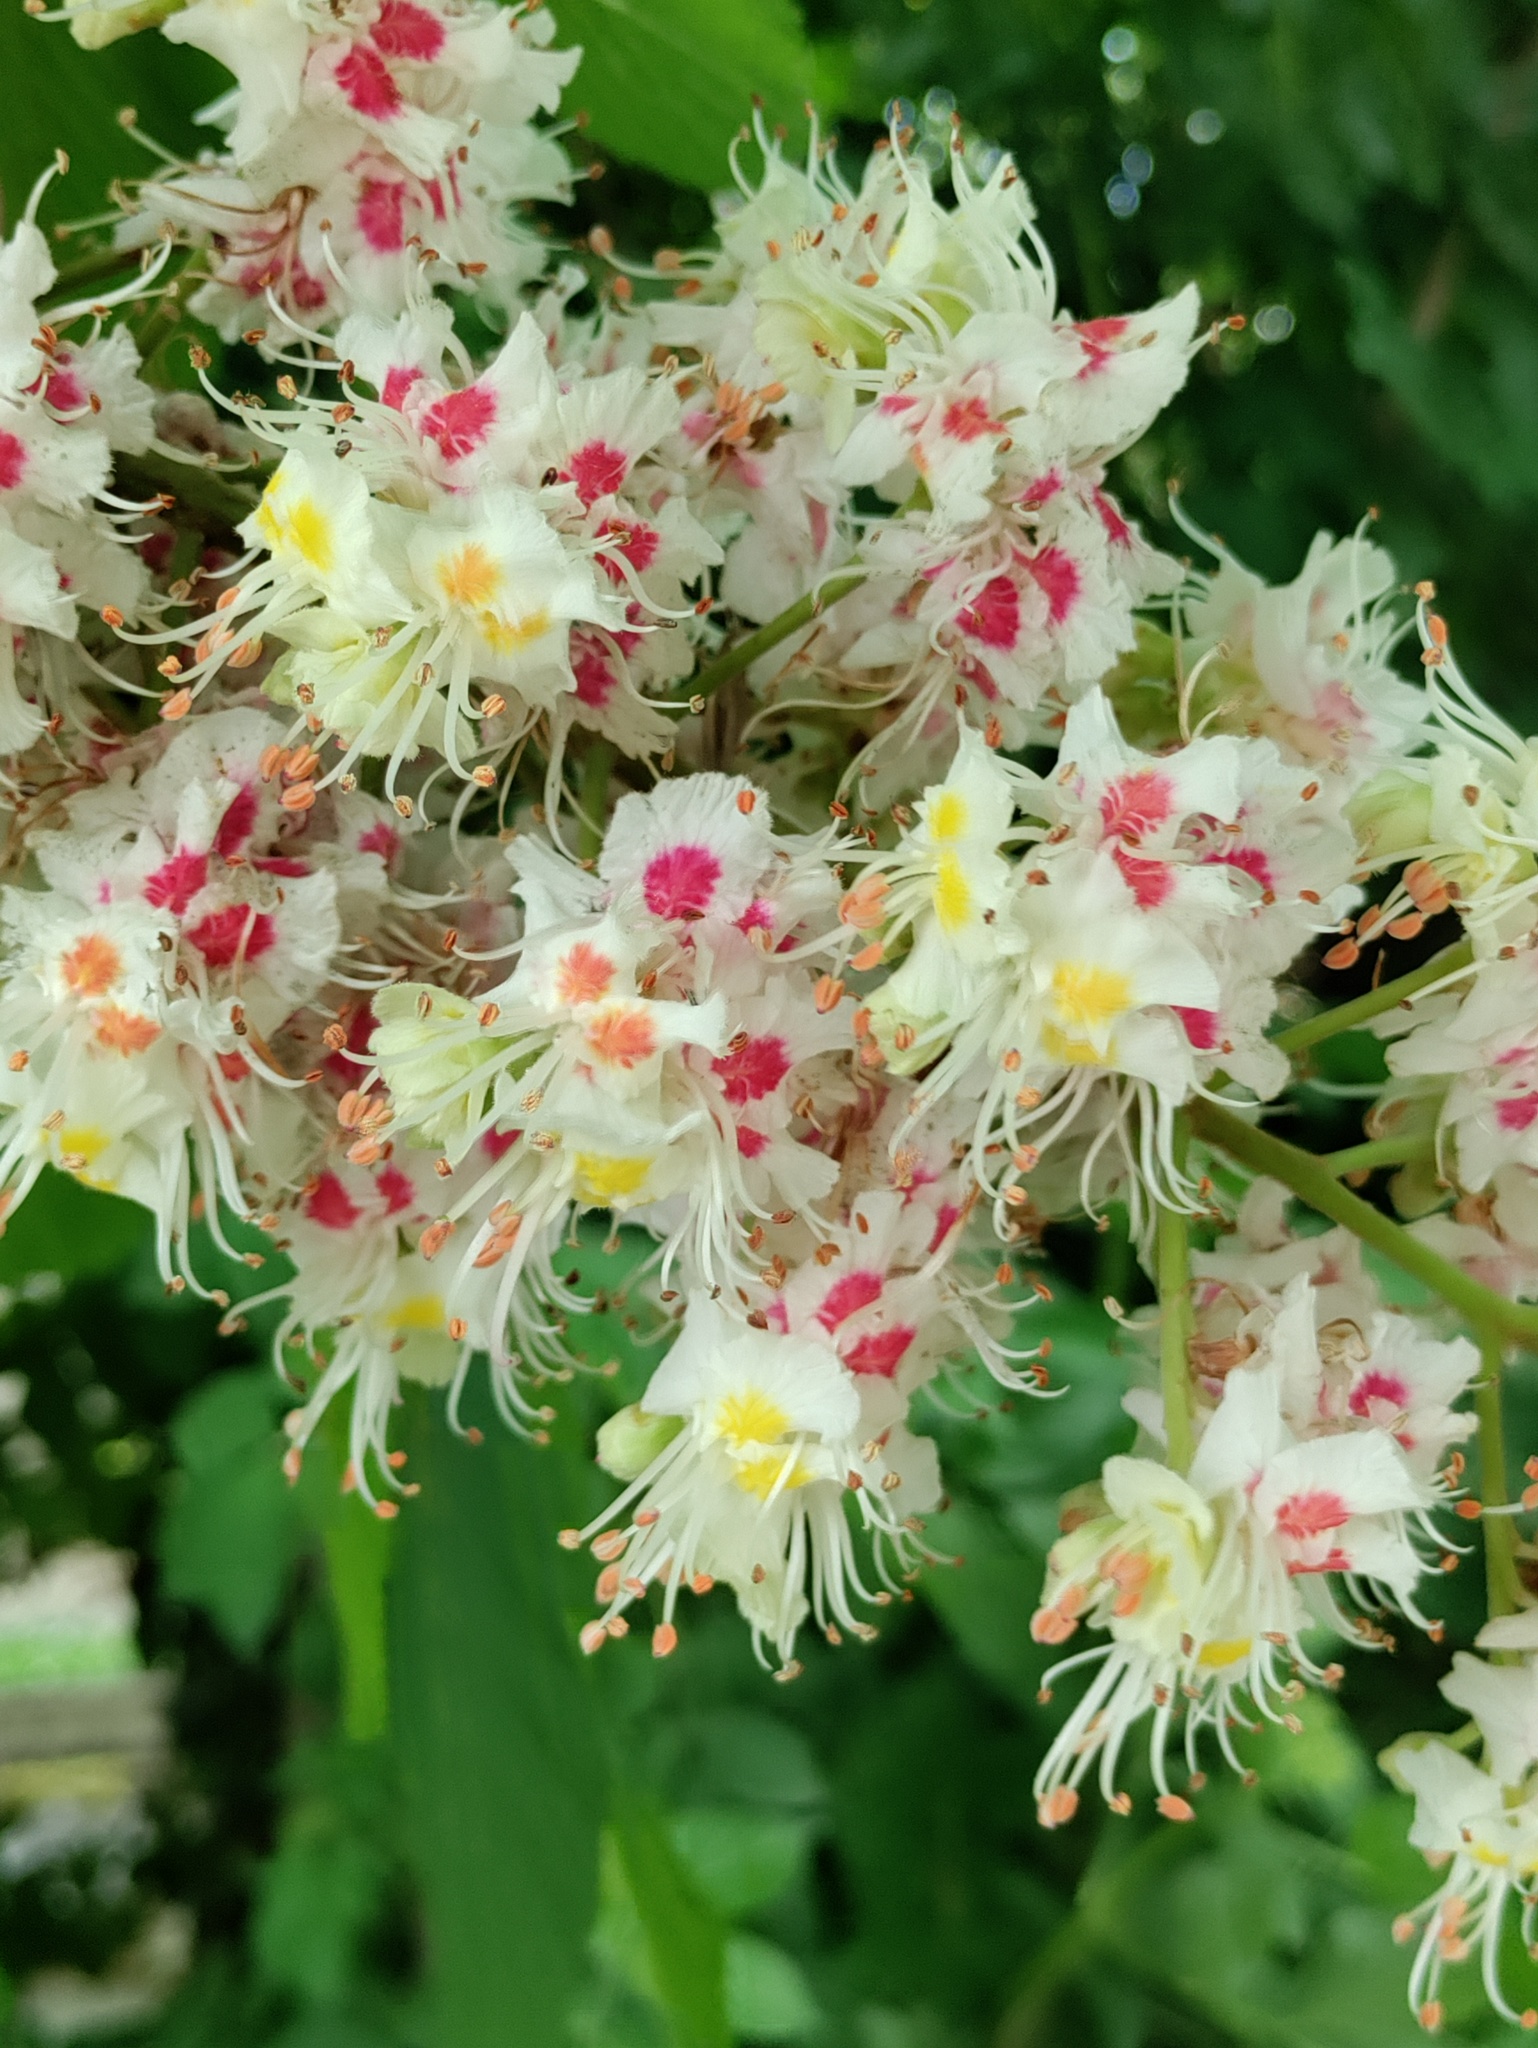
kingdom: Plantae
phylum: Tracheophyta
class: Magnoliopsida
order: Sapindales
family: Sapindaceae
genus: Aesculus
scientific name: Aesculus hippocastanum
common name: Horse-chestnut
